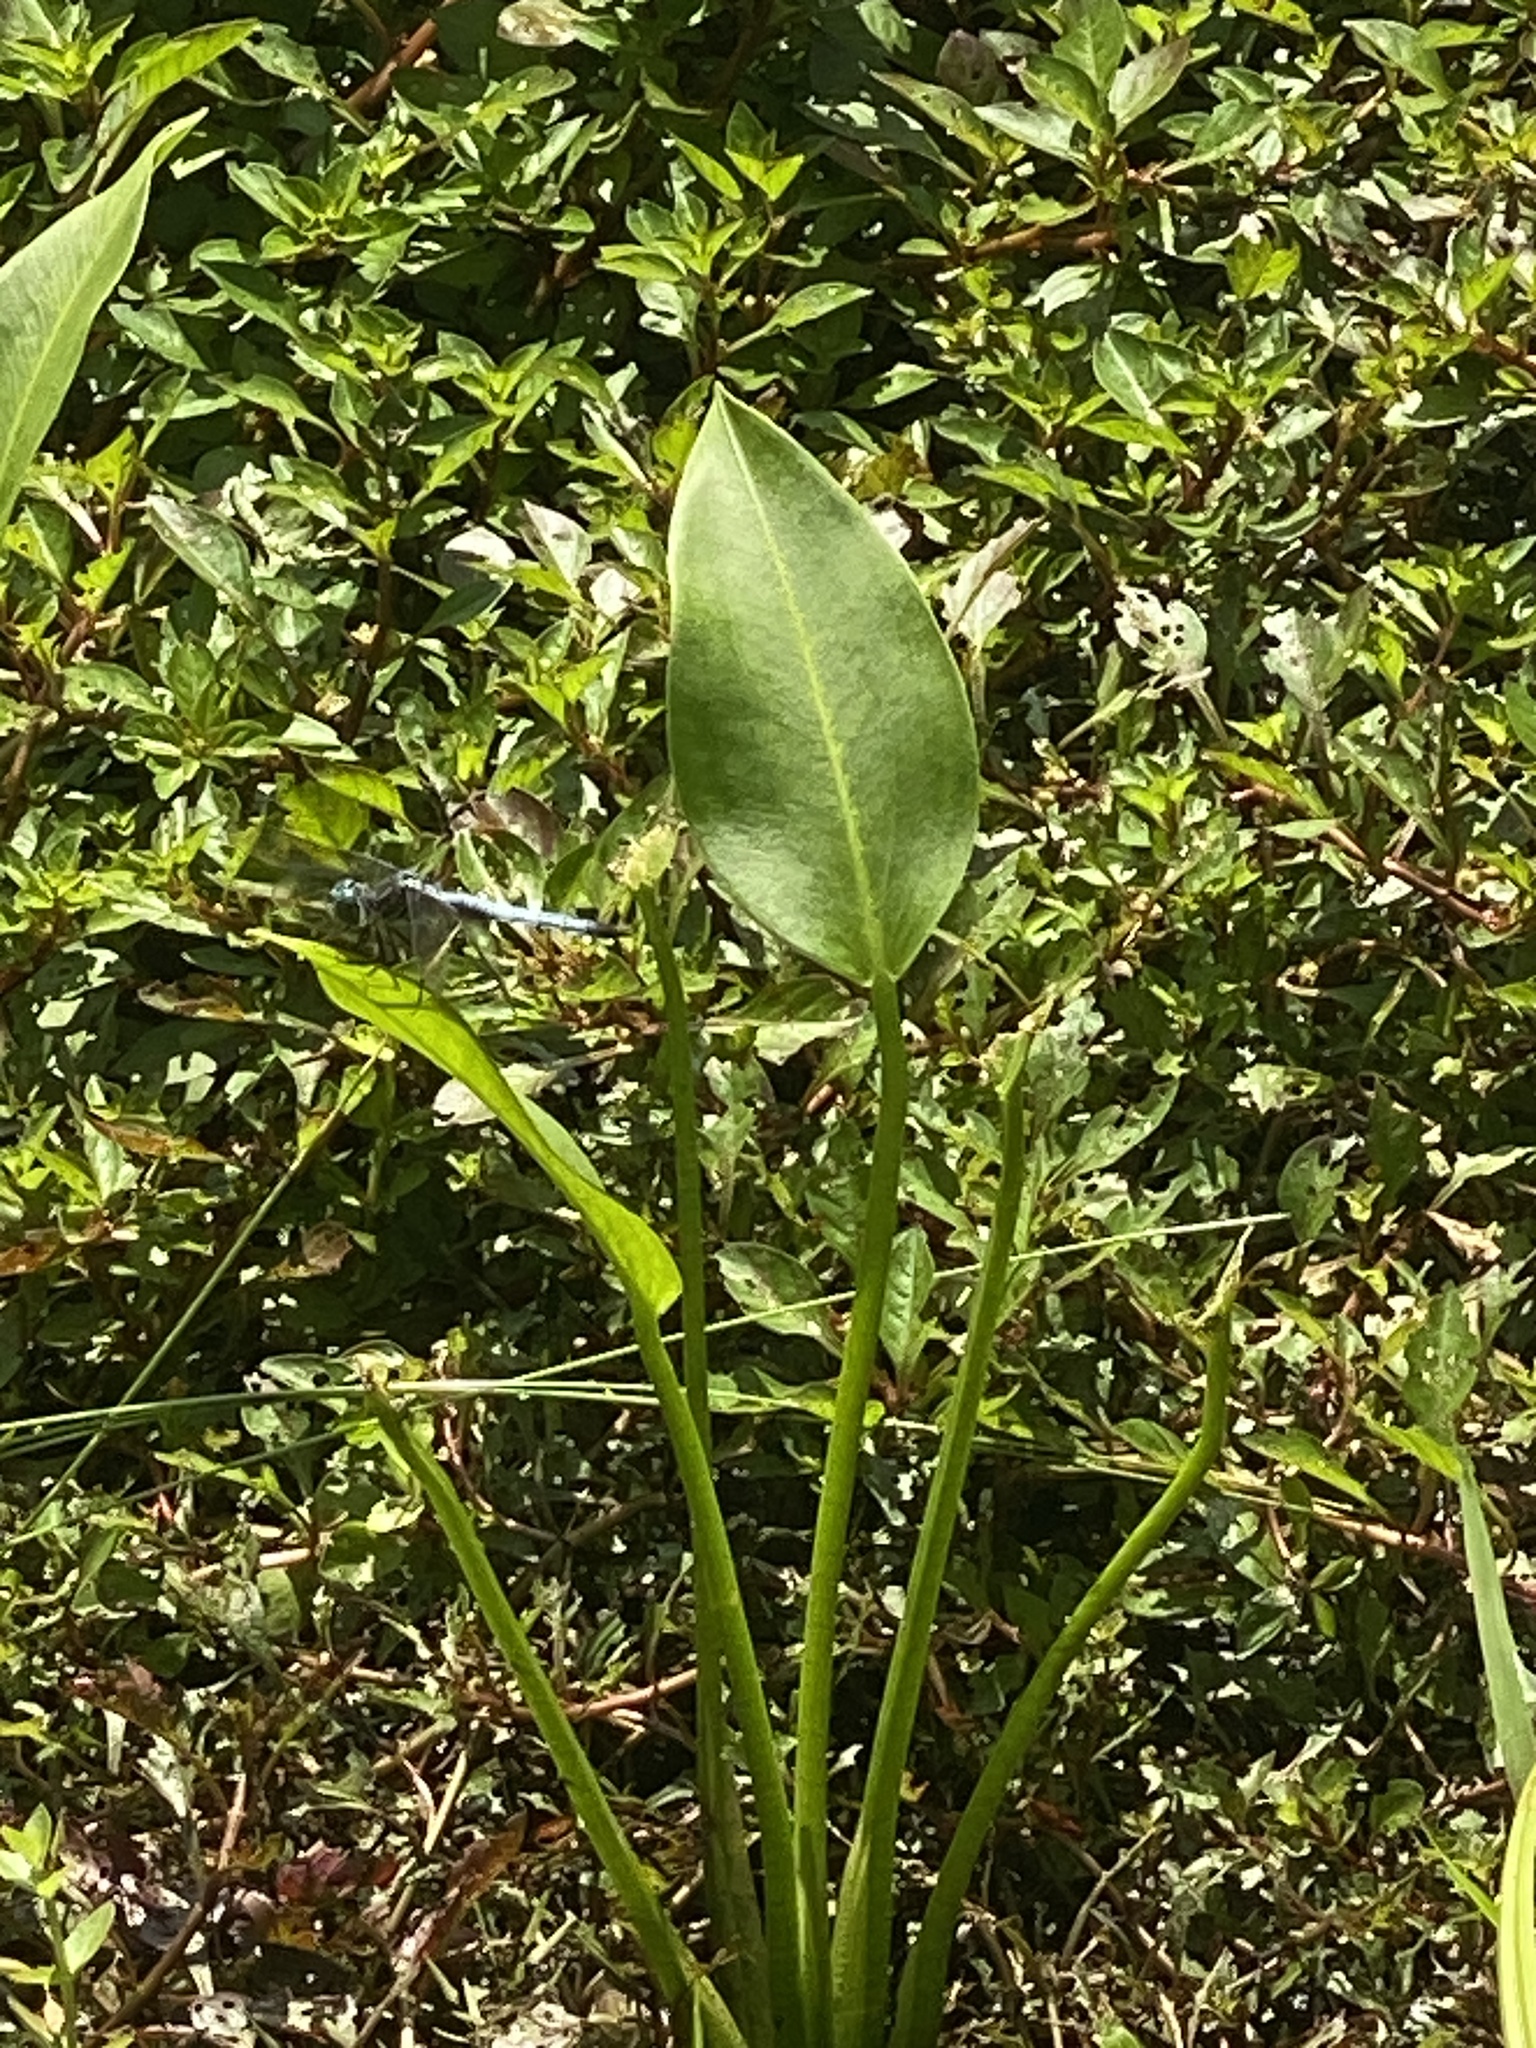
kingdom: Plantae
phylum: Tracheophyta
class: Liliopsida
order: Alismatales
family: Alismataceae
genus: Sagittaria
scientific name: Sagittaria platyphylla
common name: Broad-leaf arrowhead
